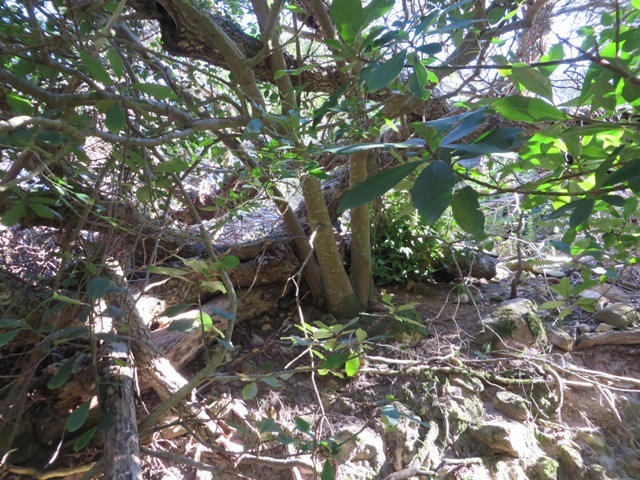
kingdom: Plantae
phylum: Tracheophyta
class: Magnoliopsida
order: Myrtales
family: Penaeaceae
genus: Olinia
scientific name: Olinia ventosa
